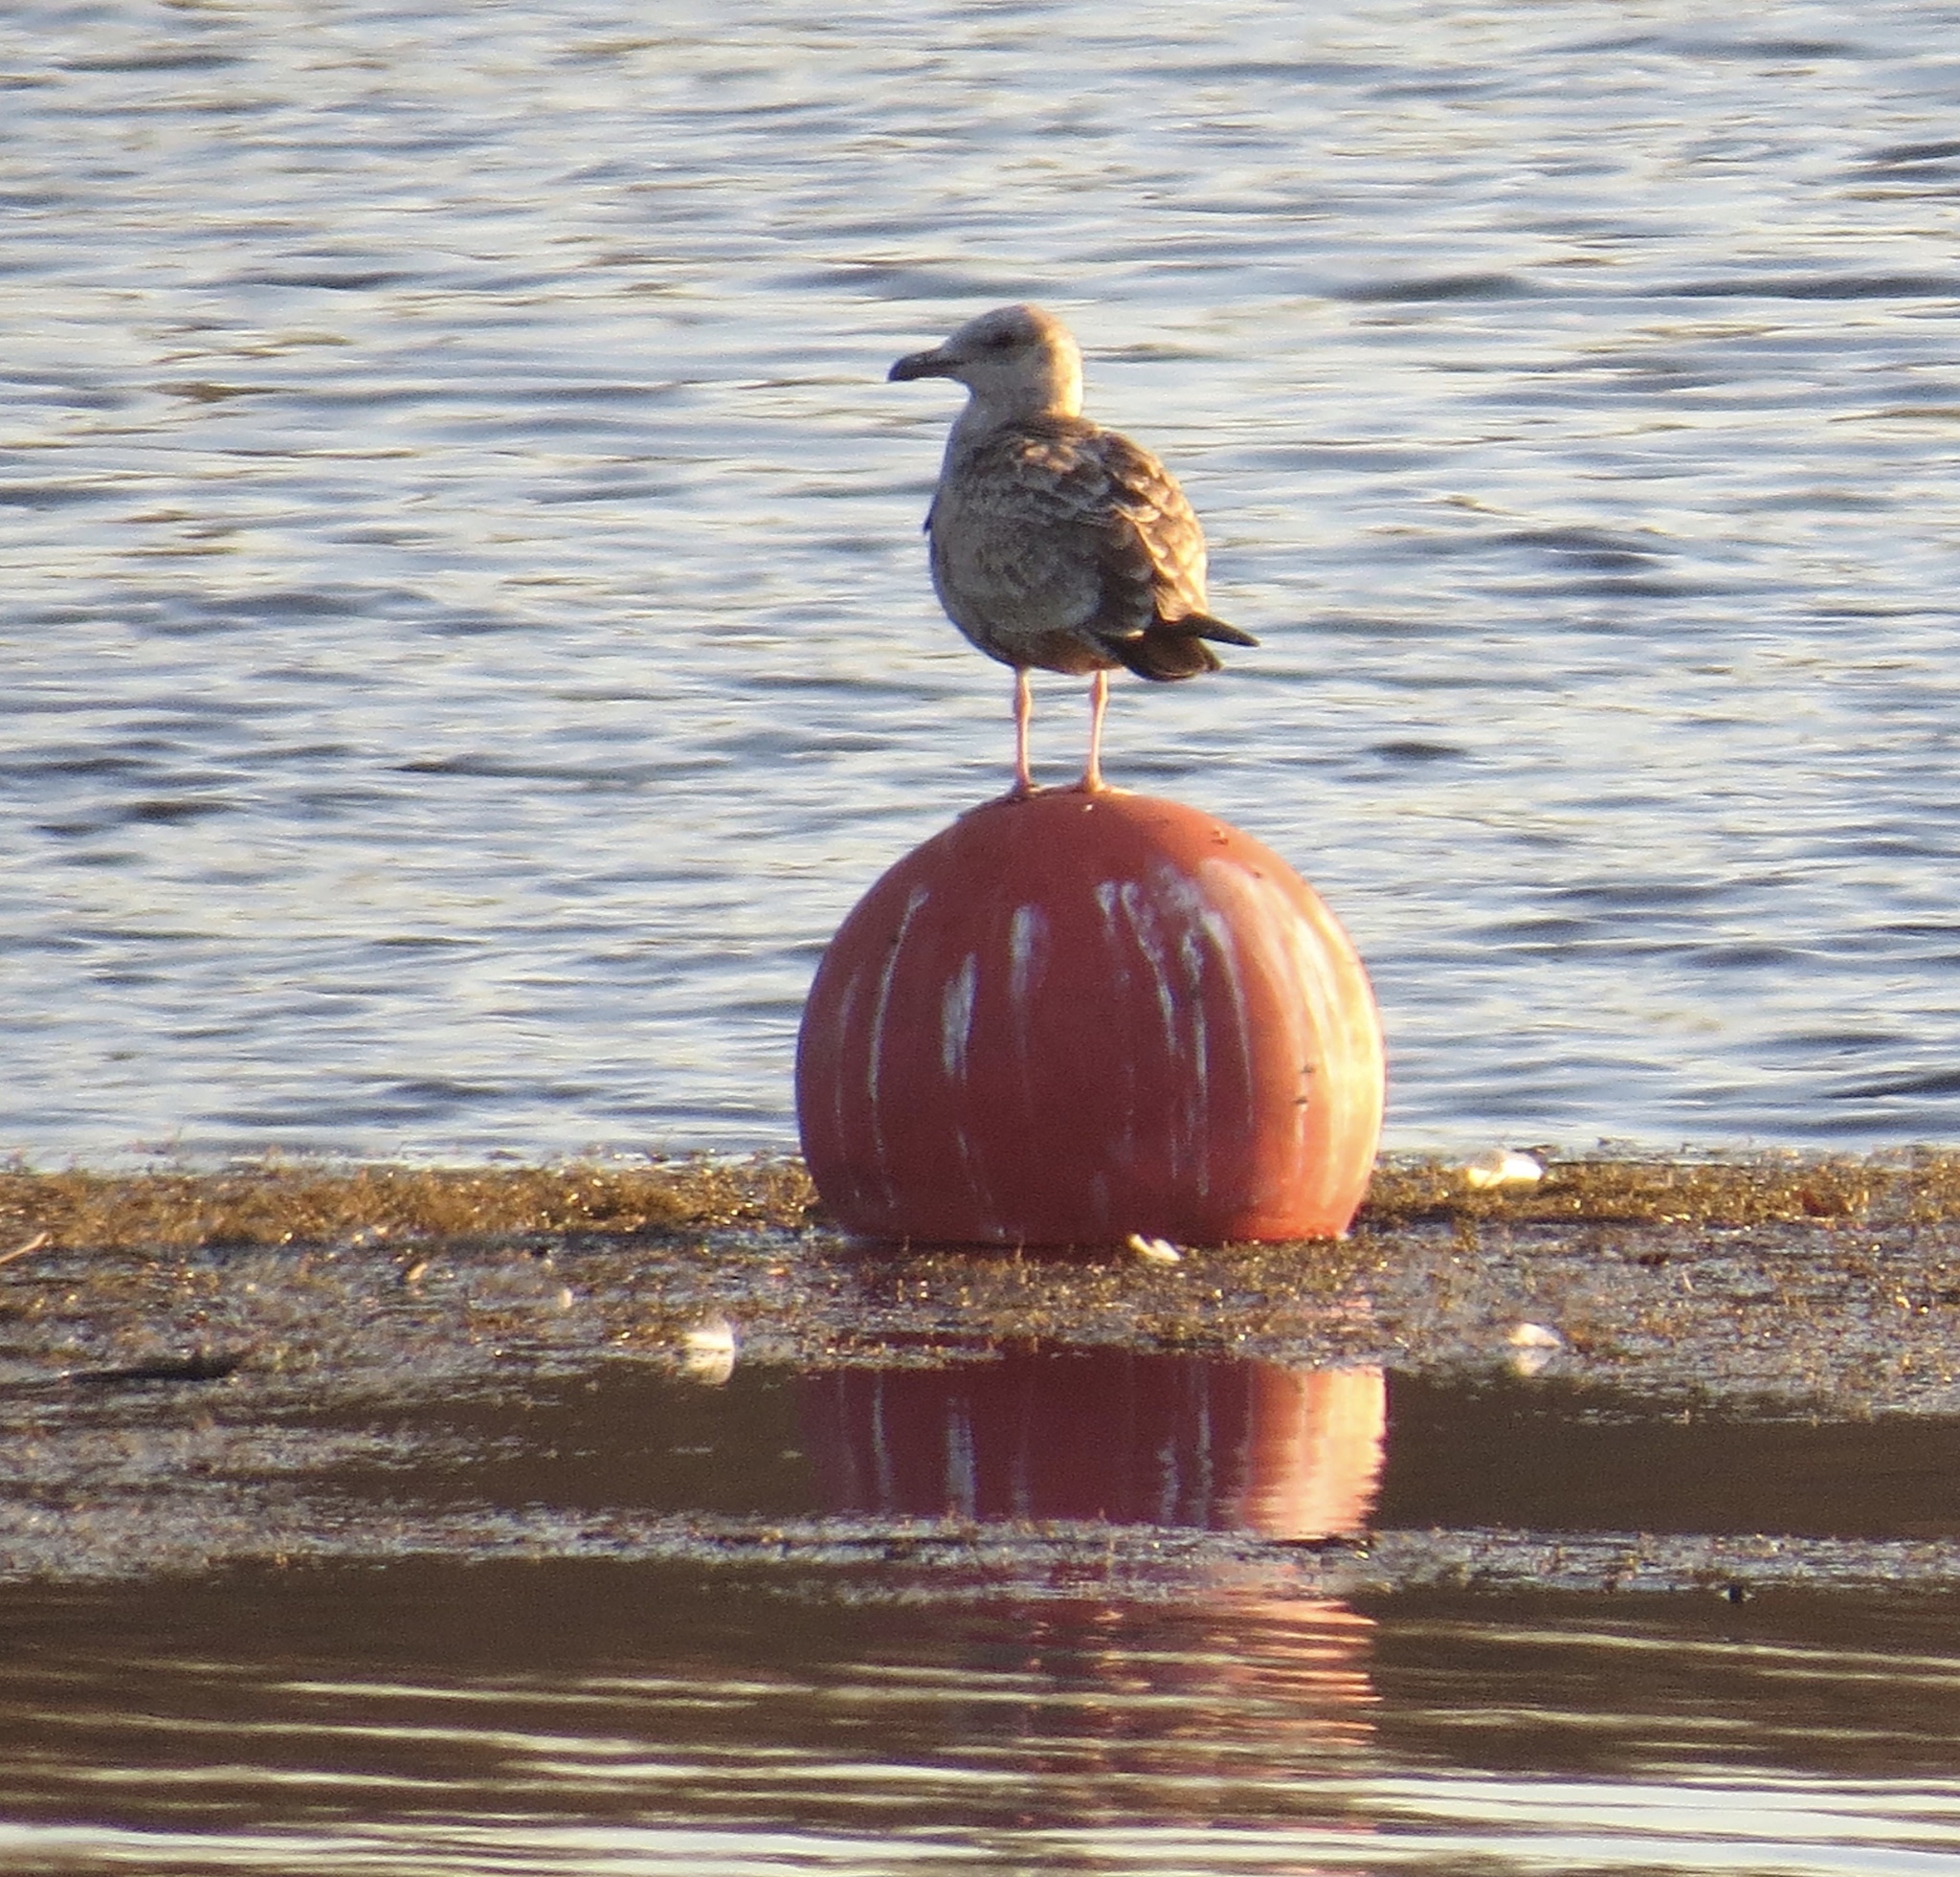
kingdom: Animalia
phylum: Chordata
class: Aves
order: Charadriiformes
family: Laridae
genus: Larus
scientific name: Larus argentatus
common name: Herring gull
